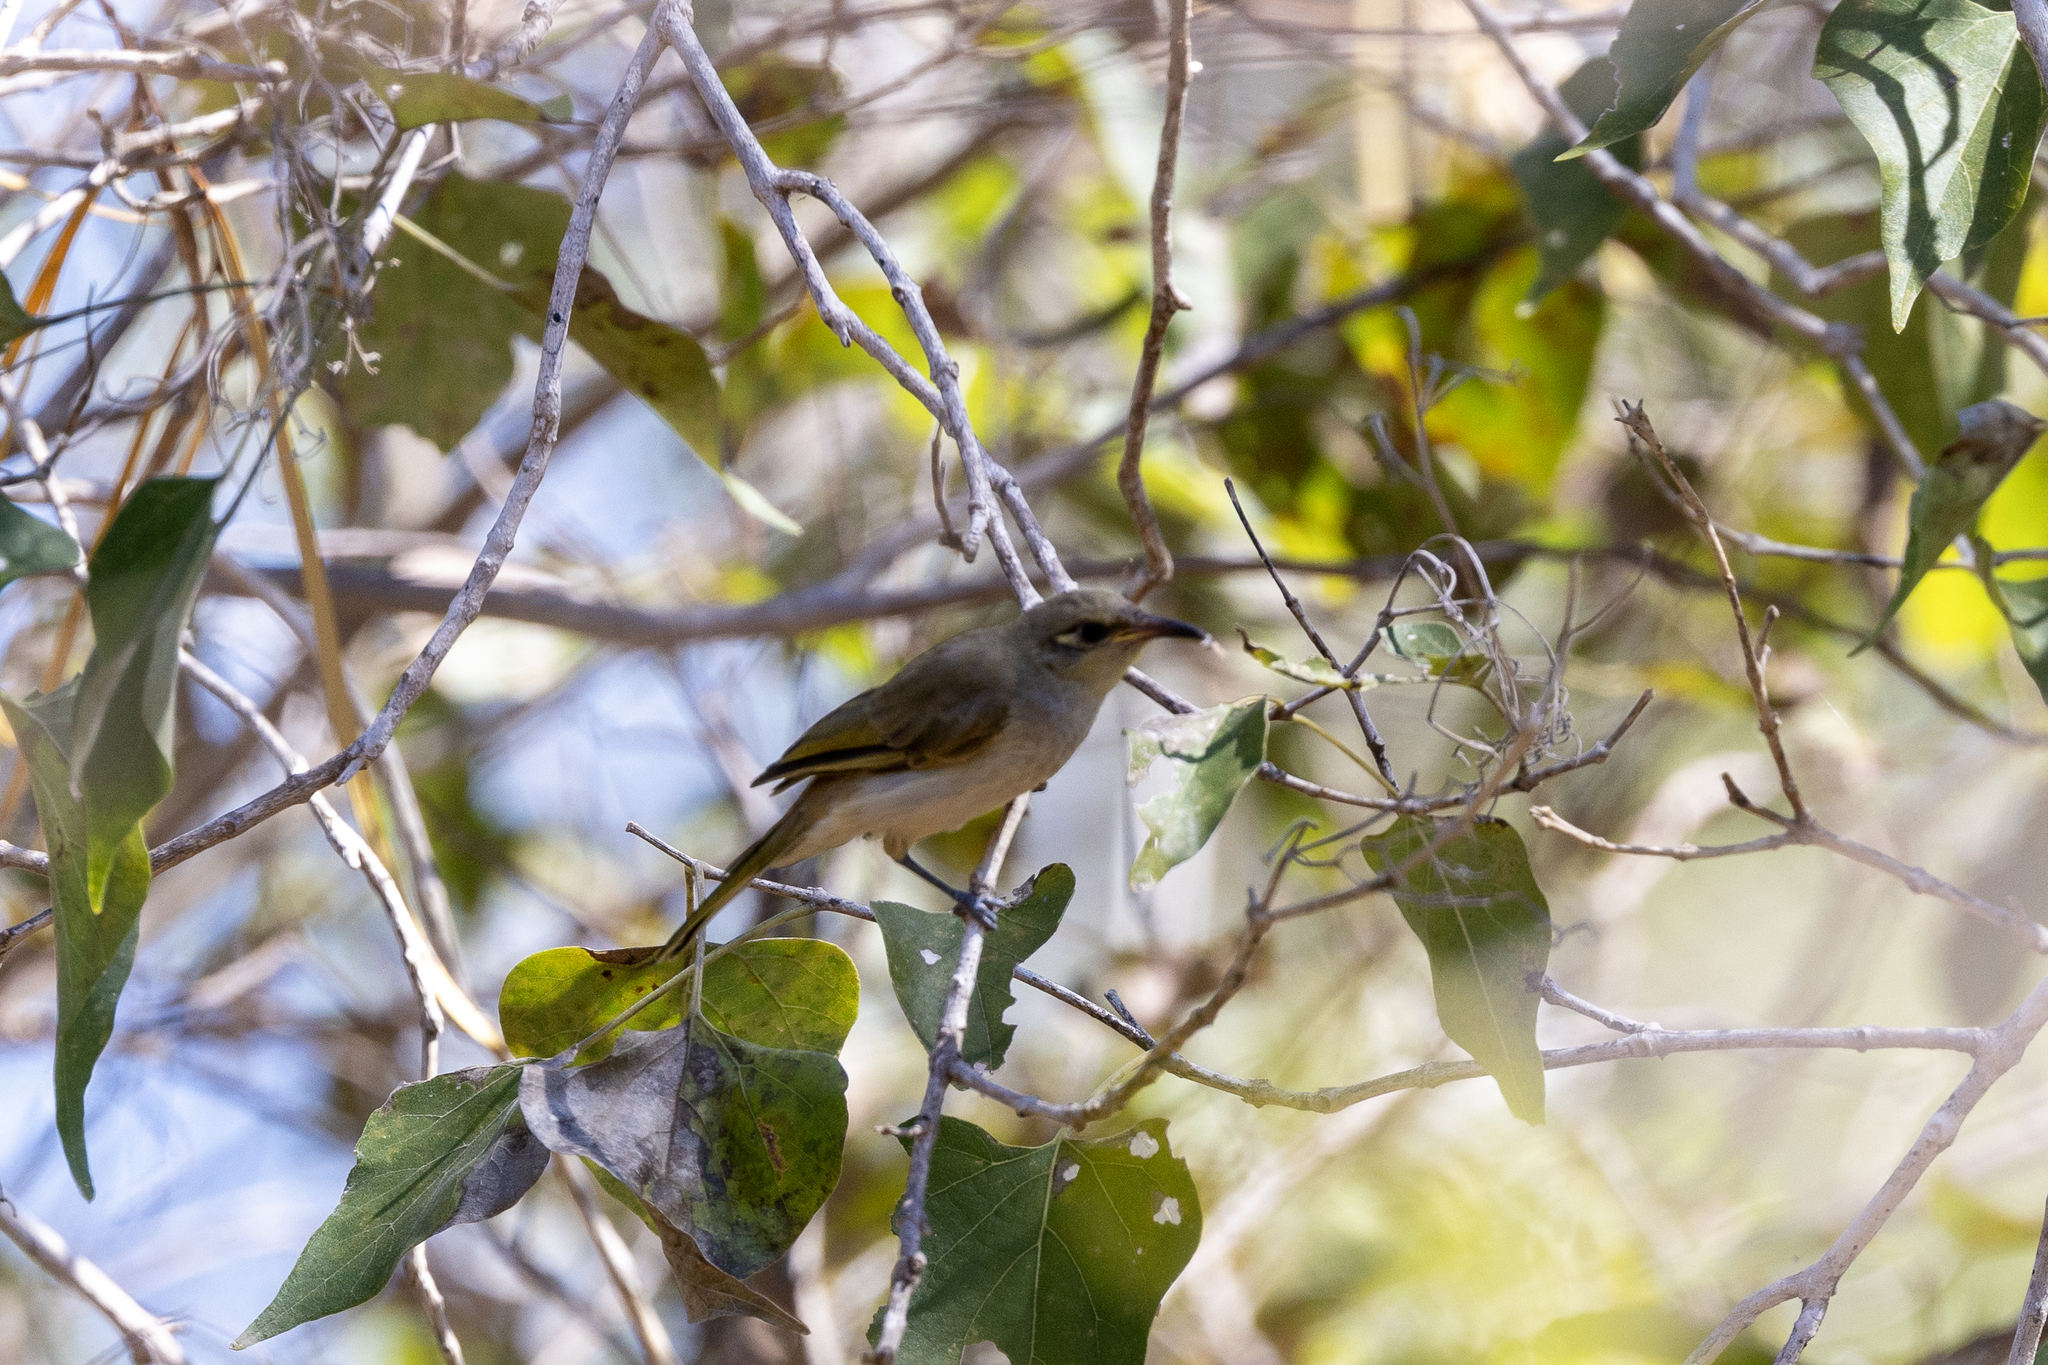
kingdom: Animalia
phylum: Chordata
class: Aves
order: Passeriformes
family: Meliphagidae
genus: Lichmera
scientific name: Lichmera indistincta
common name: Brown honeyeater
